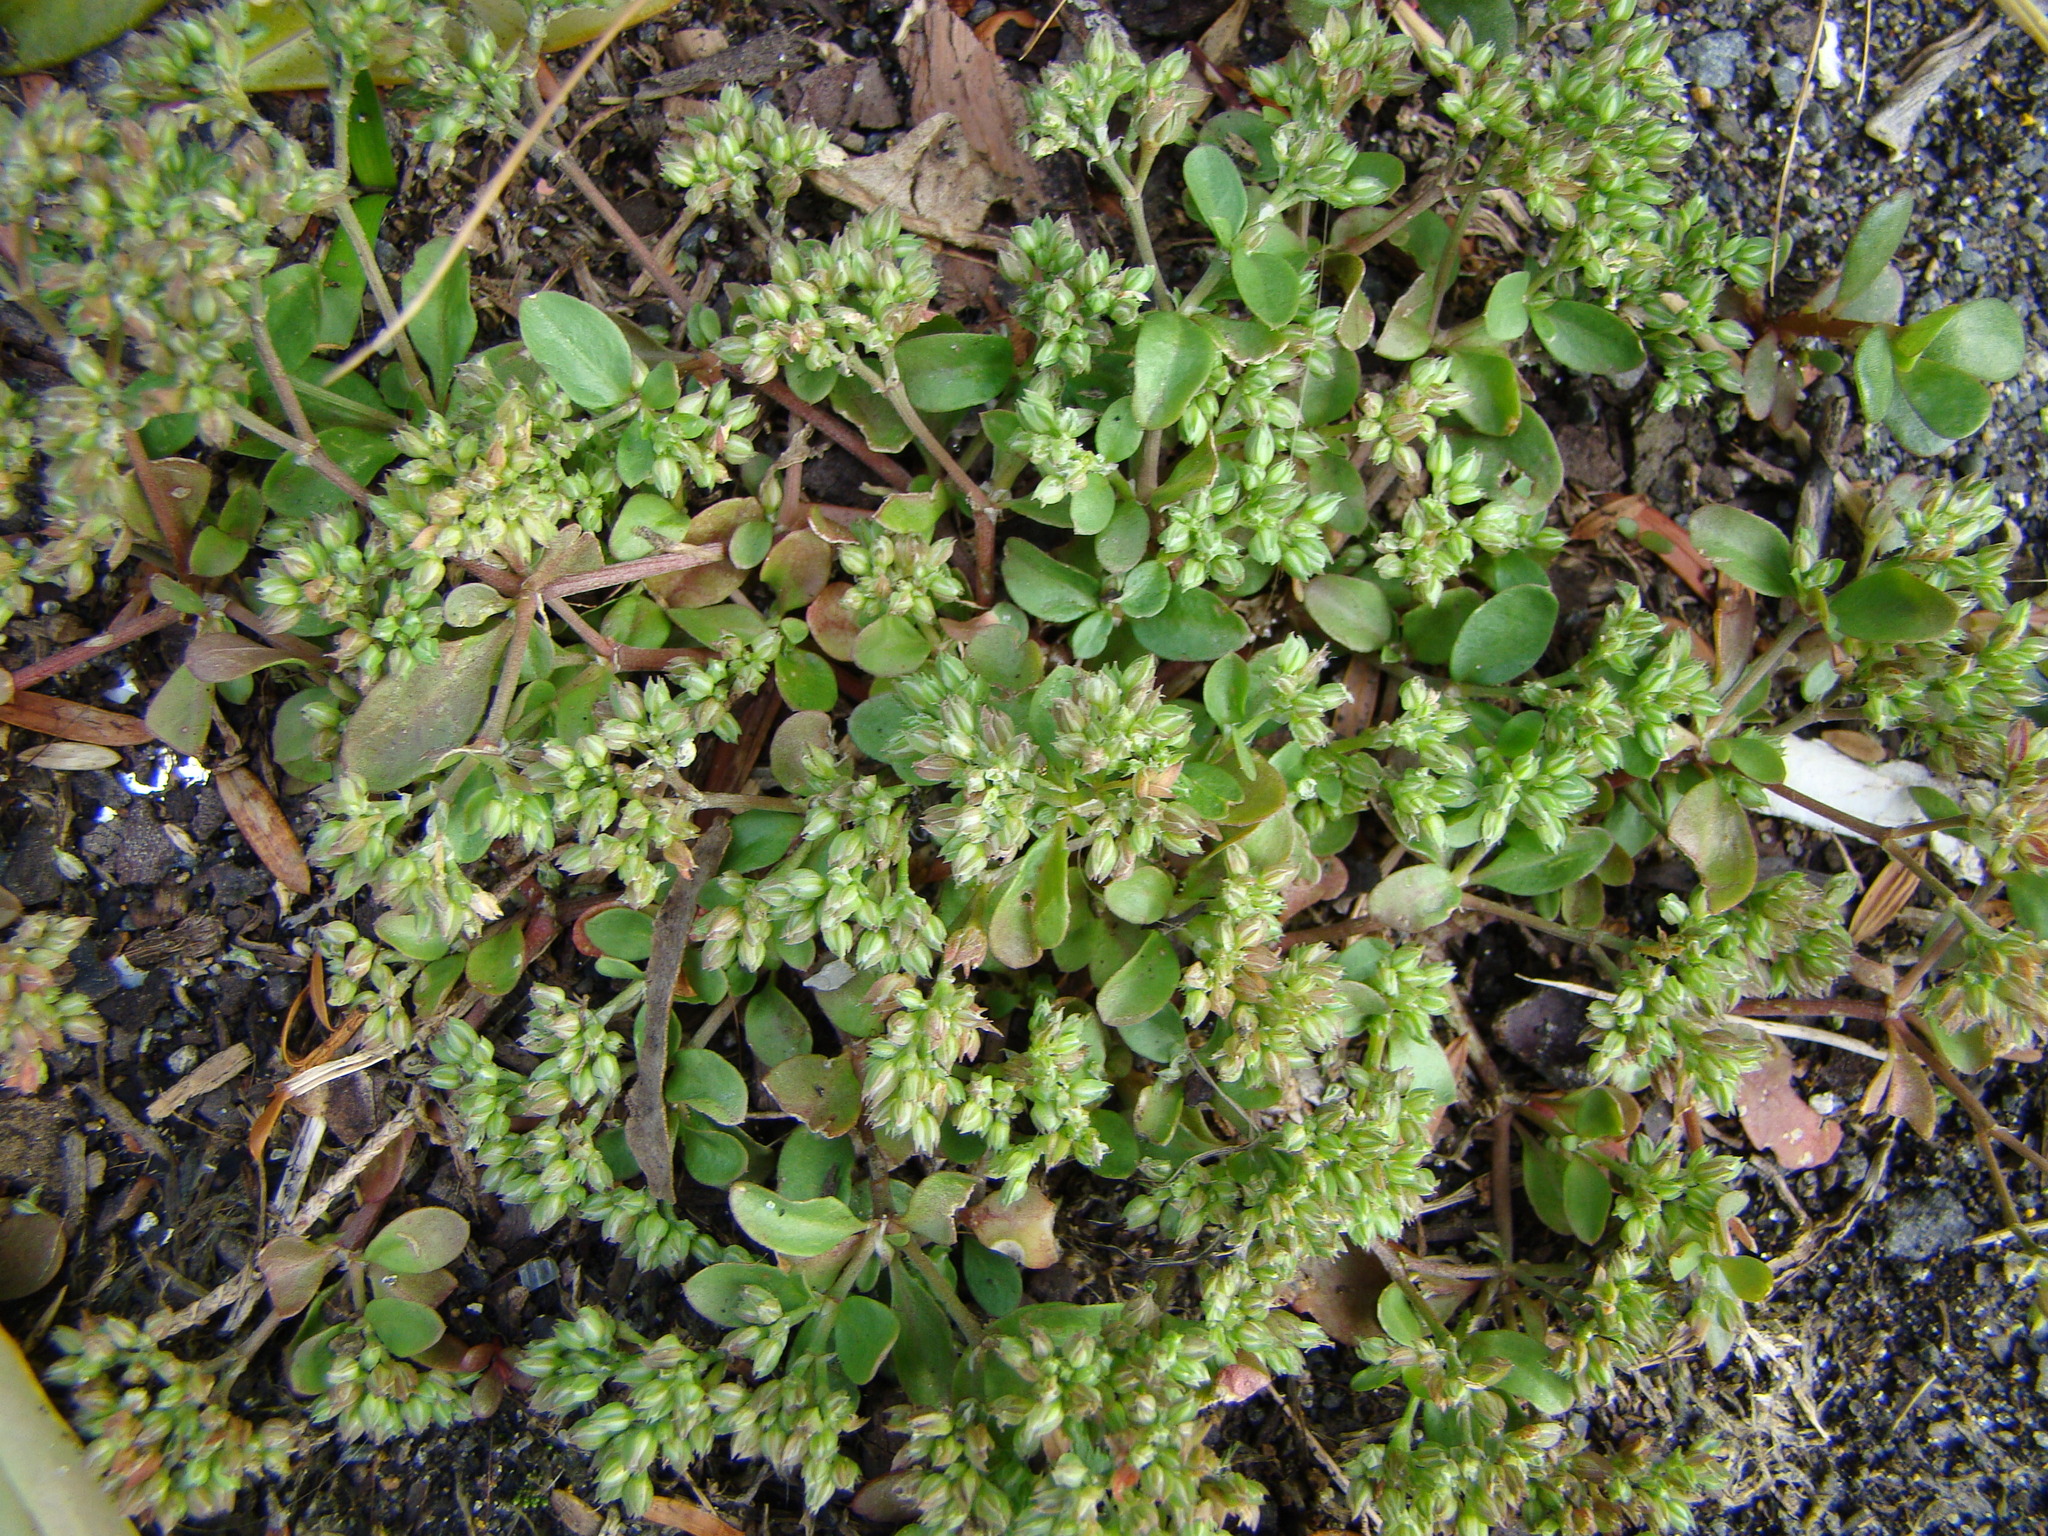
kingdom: Plantae
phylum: Tracheophyta
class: Magnoliopsida
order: Caryophyllales
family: Caryophyllaceae
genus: Polycarpon
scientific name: Polycarpon tetraphyllum
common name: Four-leaved all-seed
